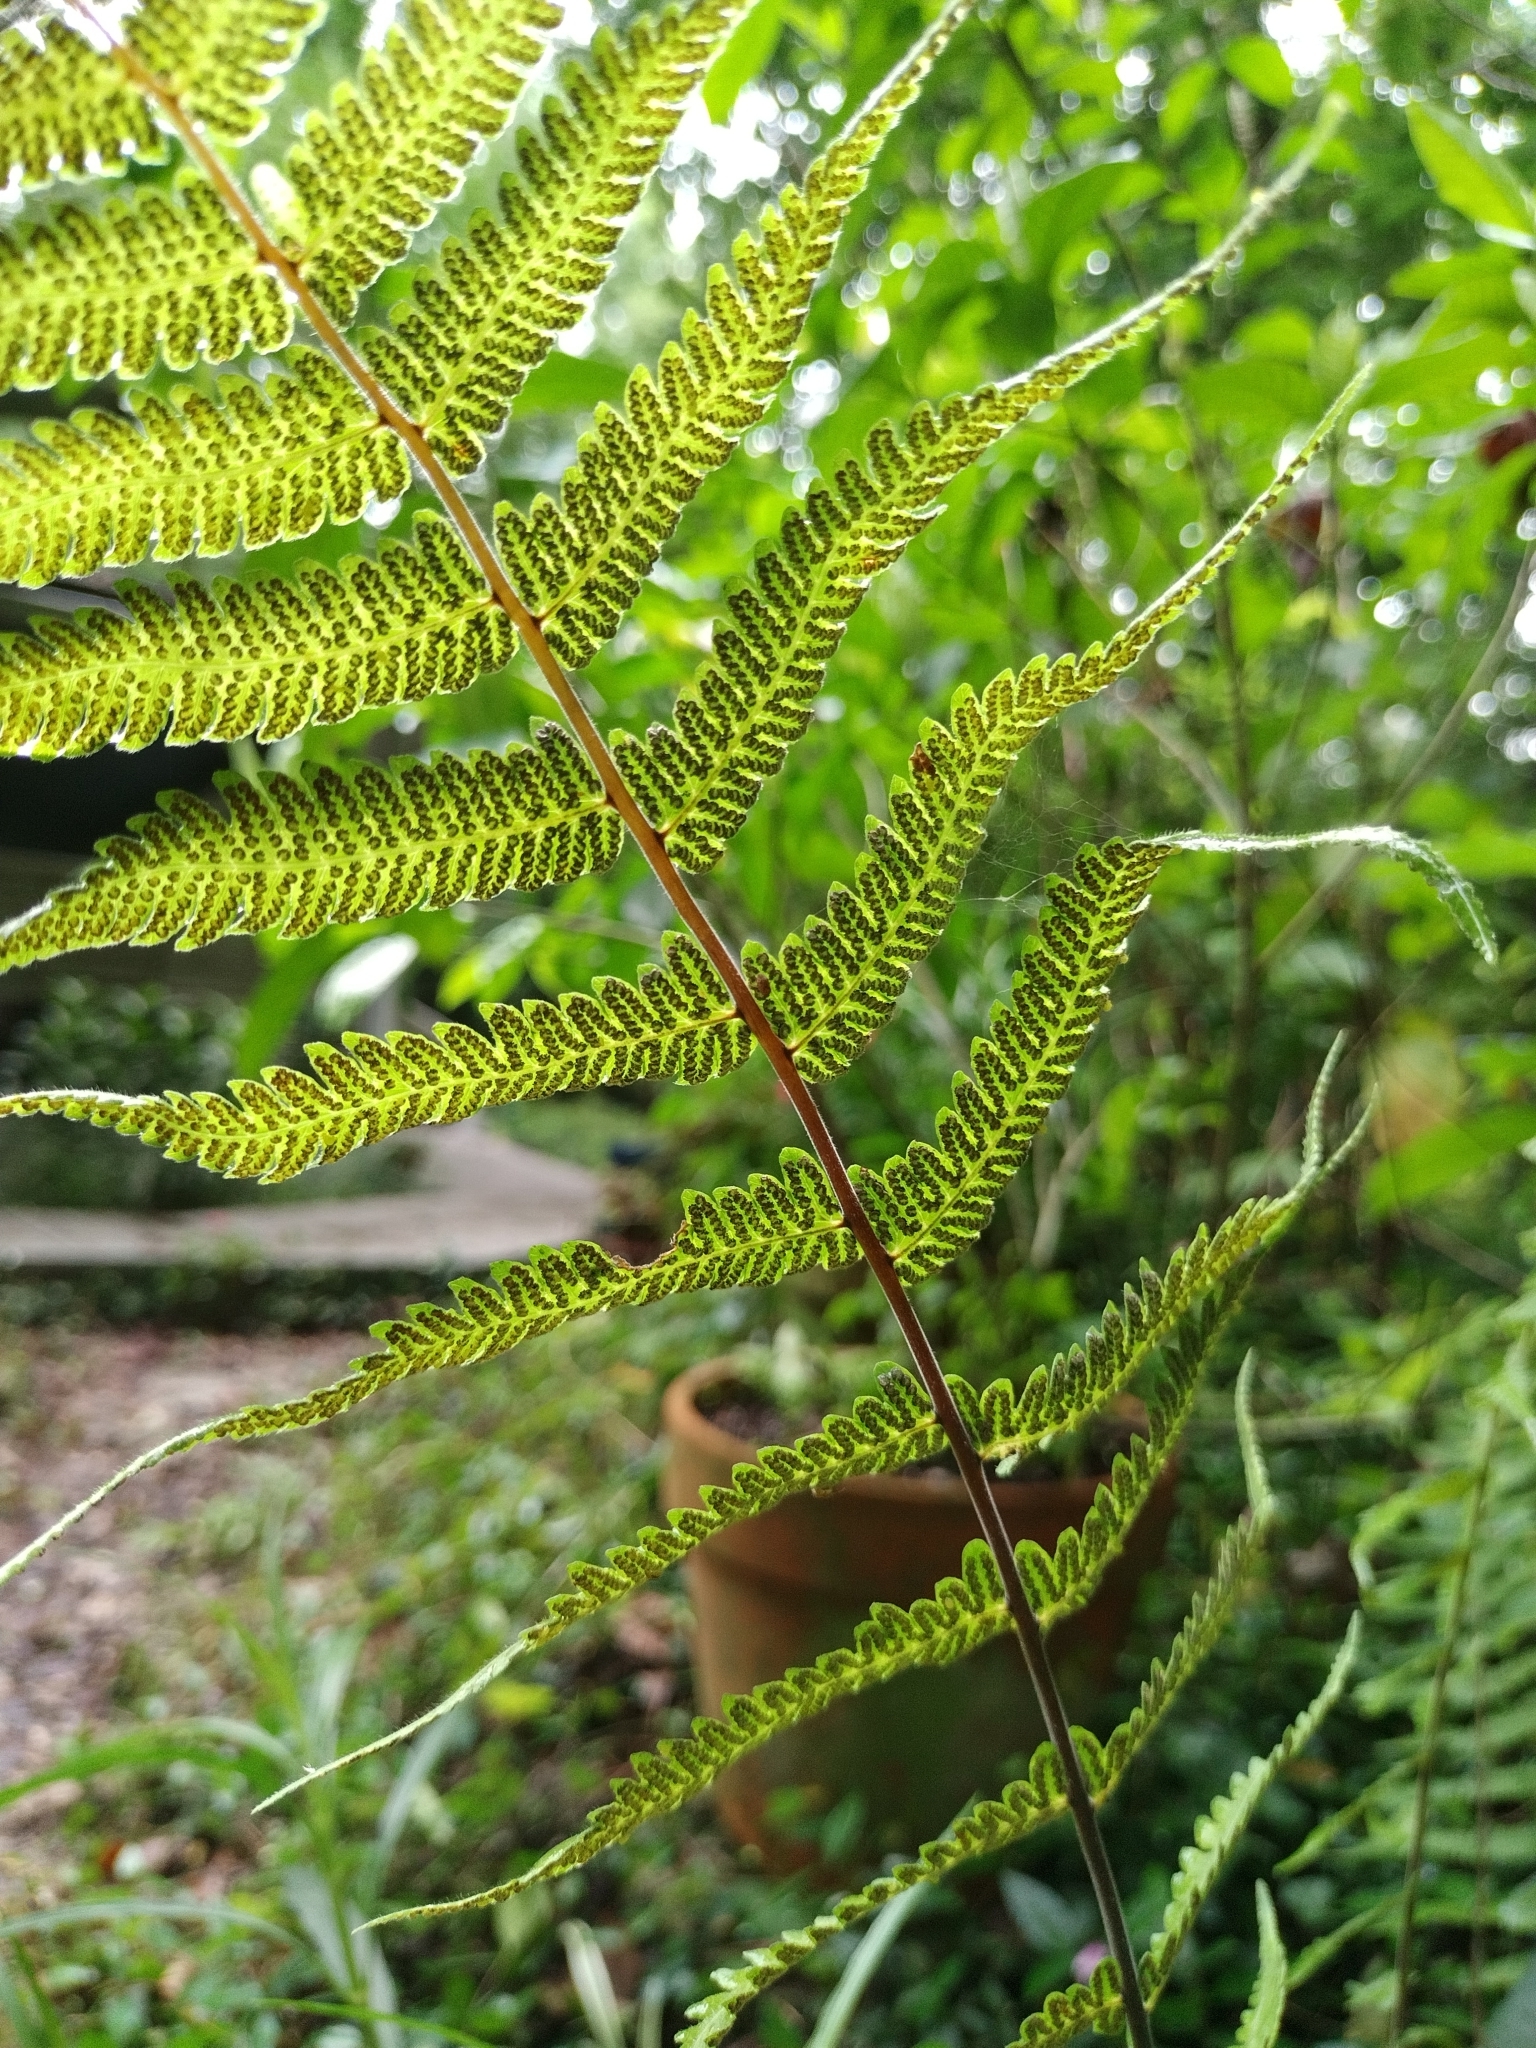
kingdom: Plantae
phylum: Tracheophyta
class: Polypodiopsida
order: Polypodiales
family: Thelypteridaceae
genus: Christella
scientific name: Christella dentata
